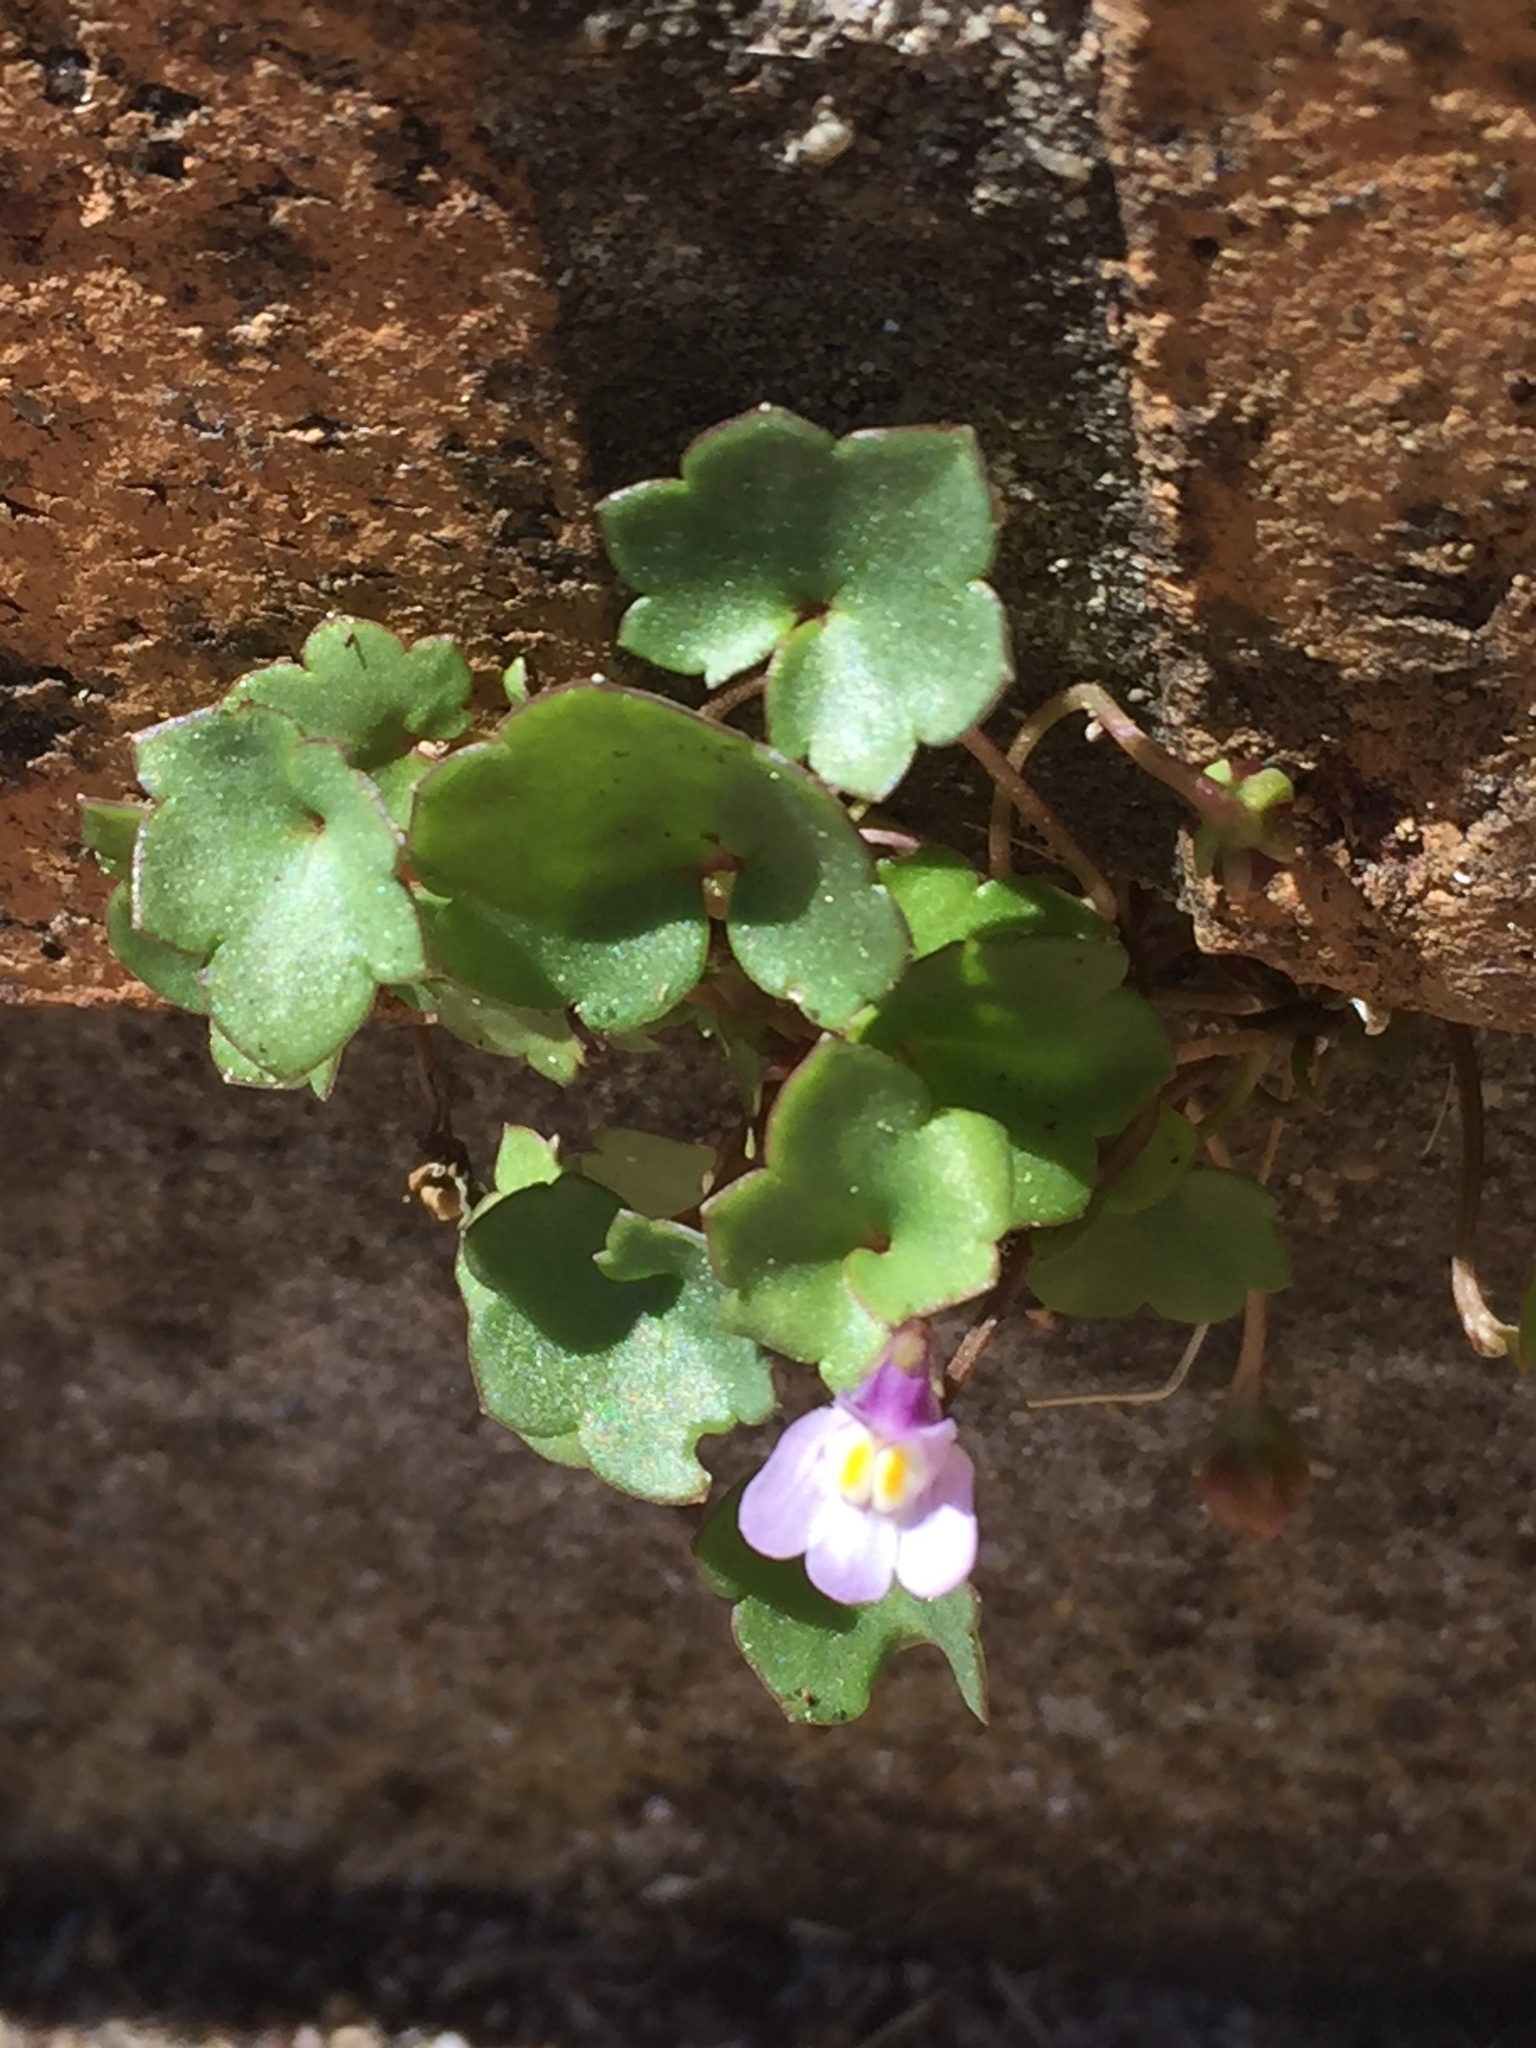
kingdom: Plantae
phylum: Tracheophyta
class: Magnoliopsida
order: Lamiales
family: Plantaginaceae
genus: Cymbalaria
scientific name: Cymbalaria muralis
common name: Ivy-leaved toadflax
